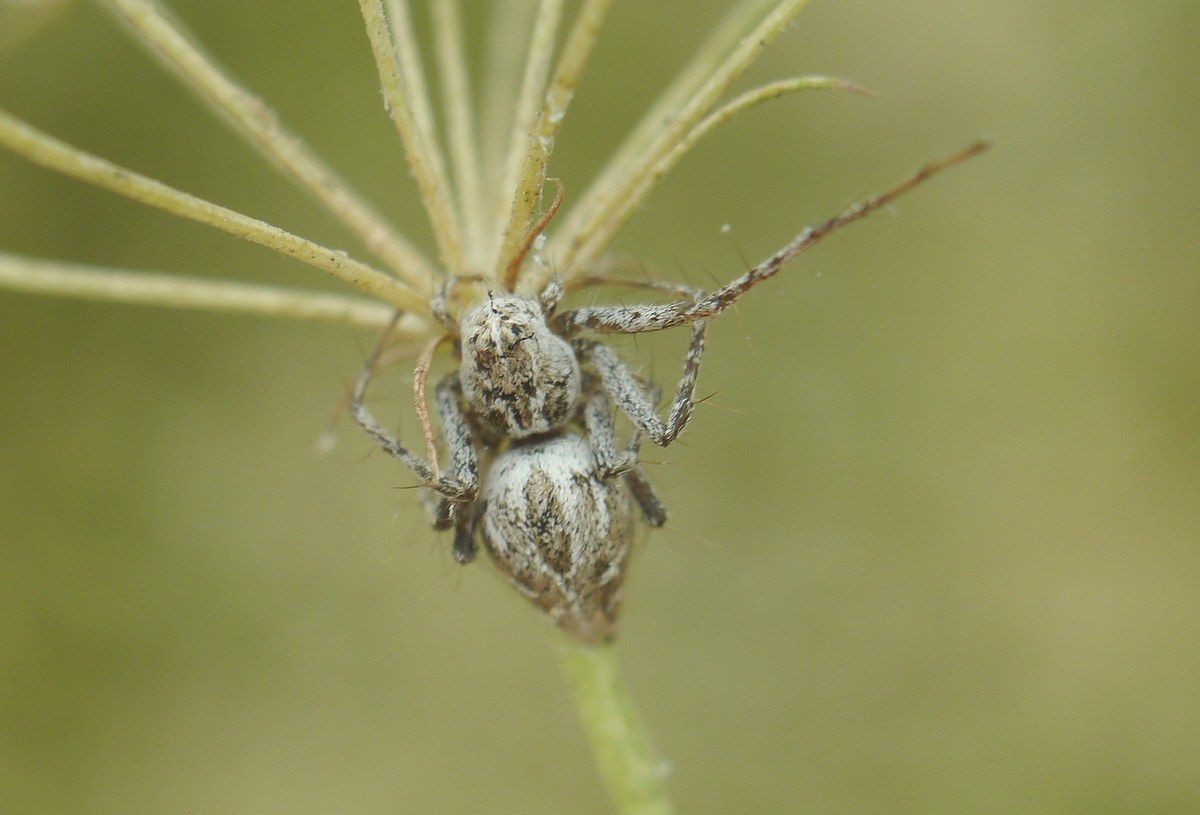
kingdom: Animalia
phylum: Arthropoda
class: Arachnida
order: Araneae
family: Oxyopidae
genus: Oxyopes
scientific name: Oxyopes
